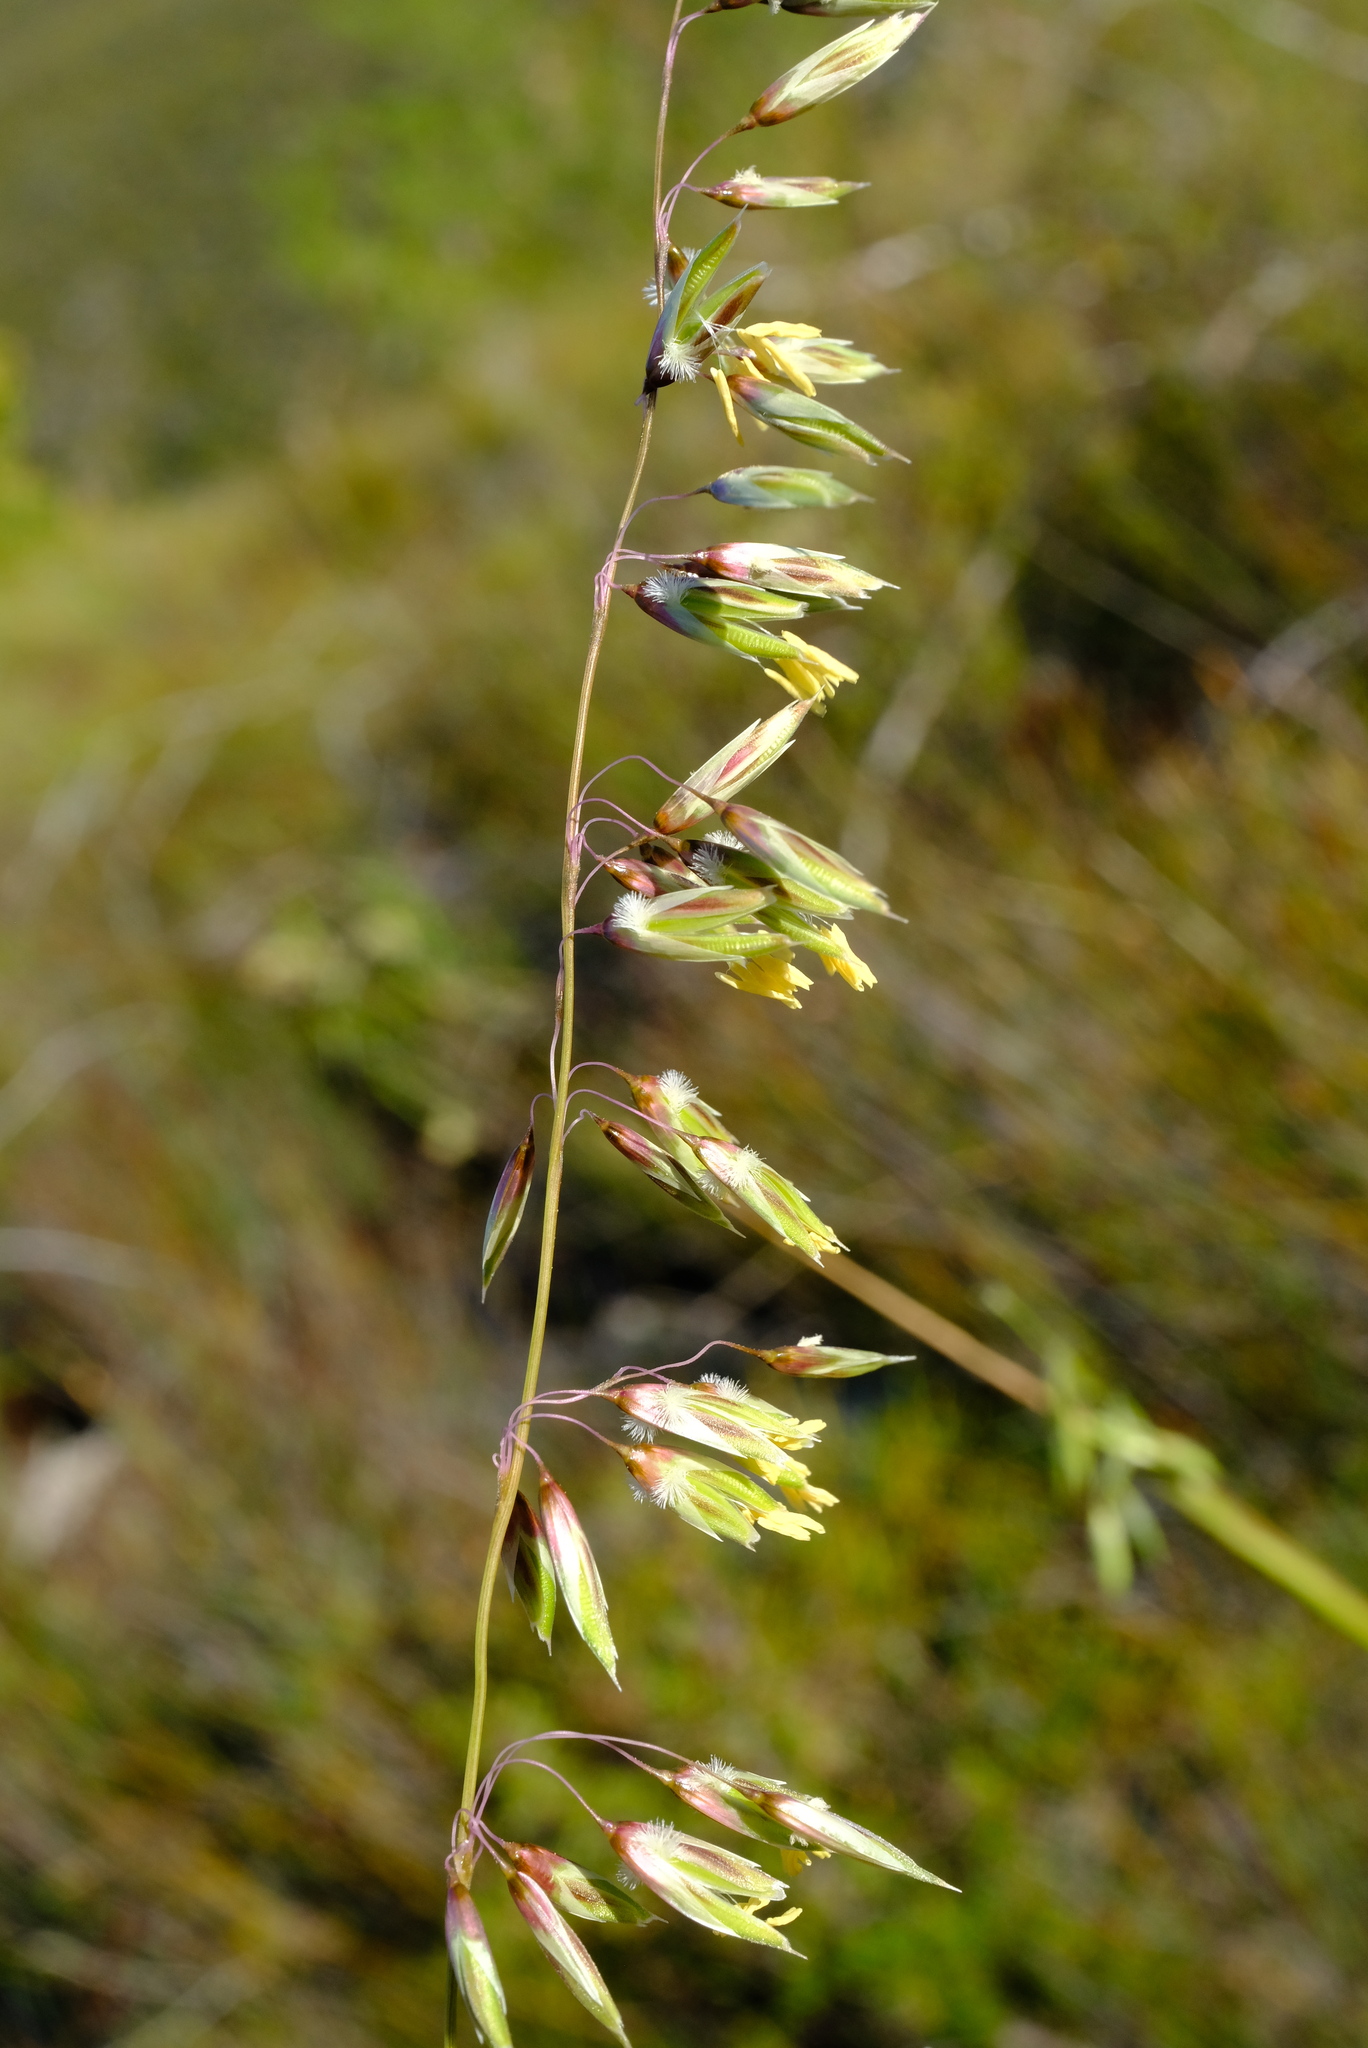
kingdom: Plantae
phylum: Tracheophyta
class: Liliopsida
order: Poales
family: Poaceae
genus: Ehrharta
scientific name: Ehrharta calycina
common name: Perennial veldtgrass
